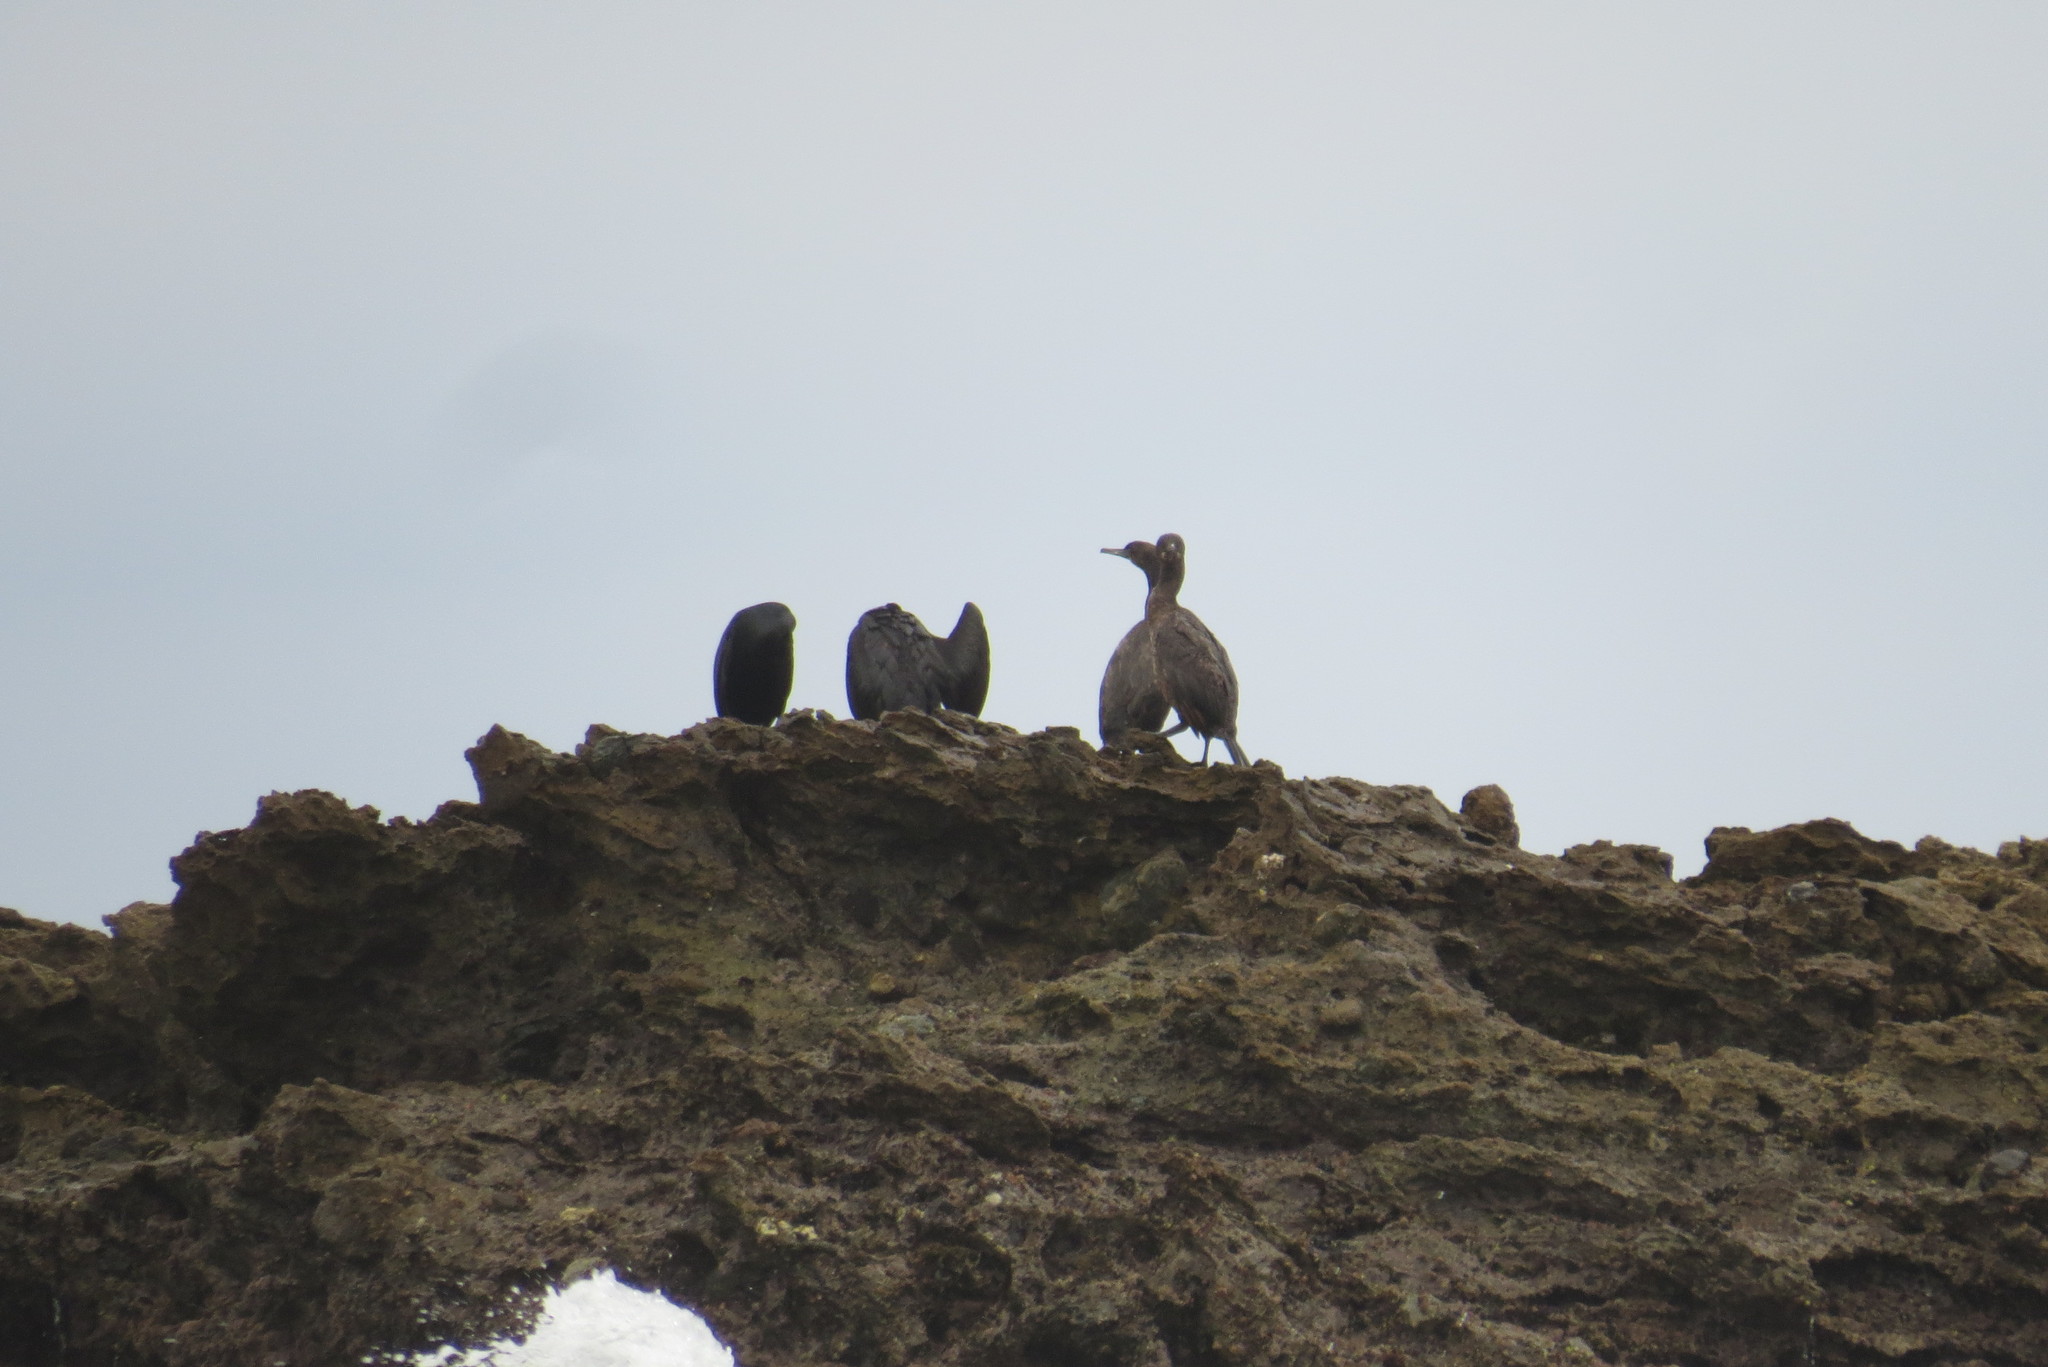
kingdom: Animalia
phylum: Chordata
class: Aves
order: Suliformes
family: Phalacrocoracidae
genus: Urile
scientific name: Urile penicillatus
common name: Brandt's cormorant
